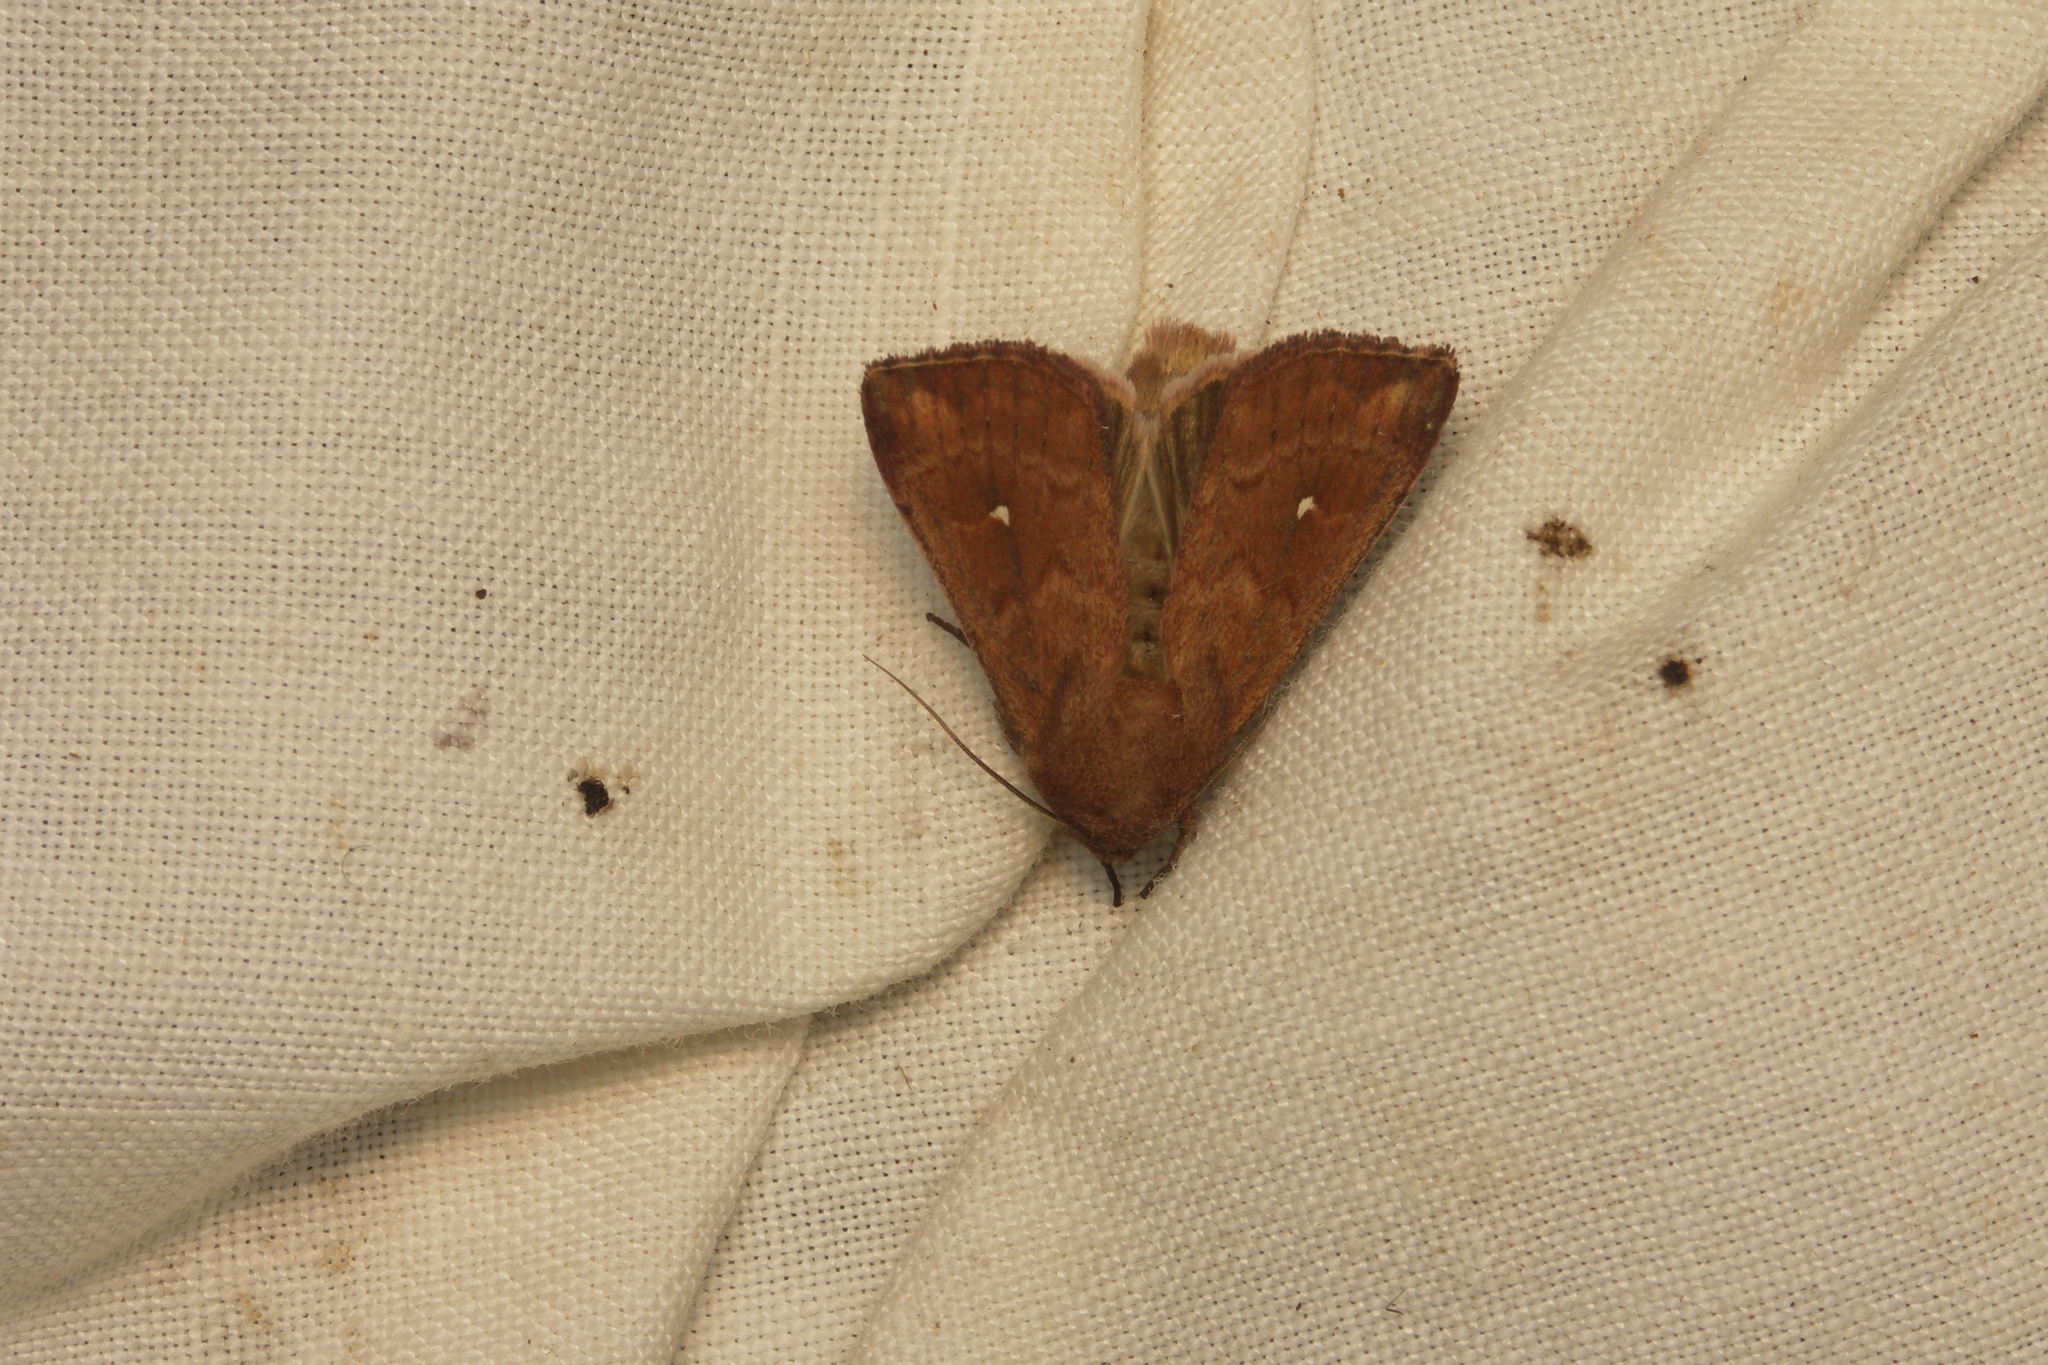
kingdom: Animalia
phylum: Arthropoda
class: Insecta
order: Lepidoptera
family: Noctuidae
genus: Mythimna
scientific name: Mythimna albipuncta
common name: White-point
